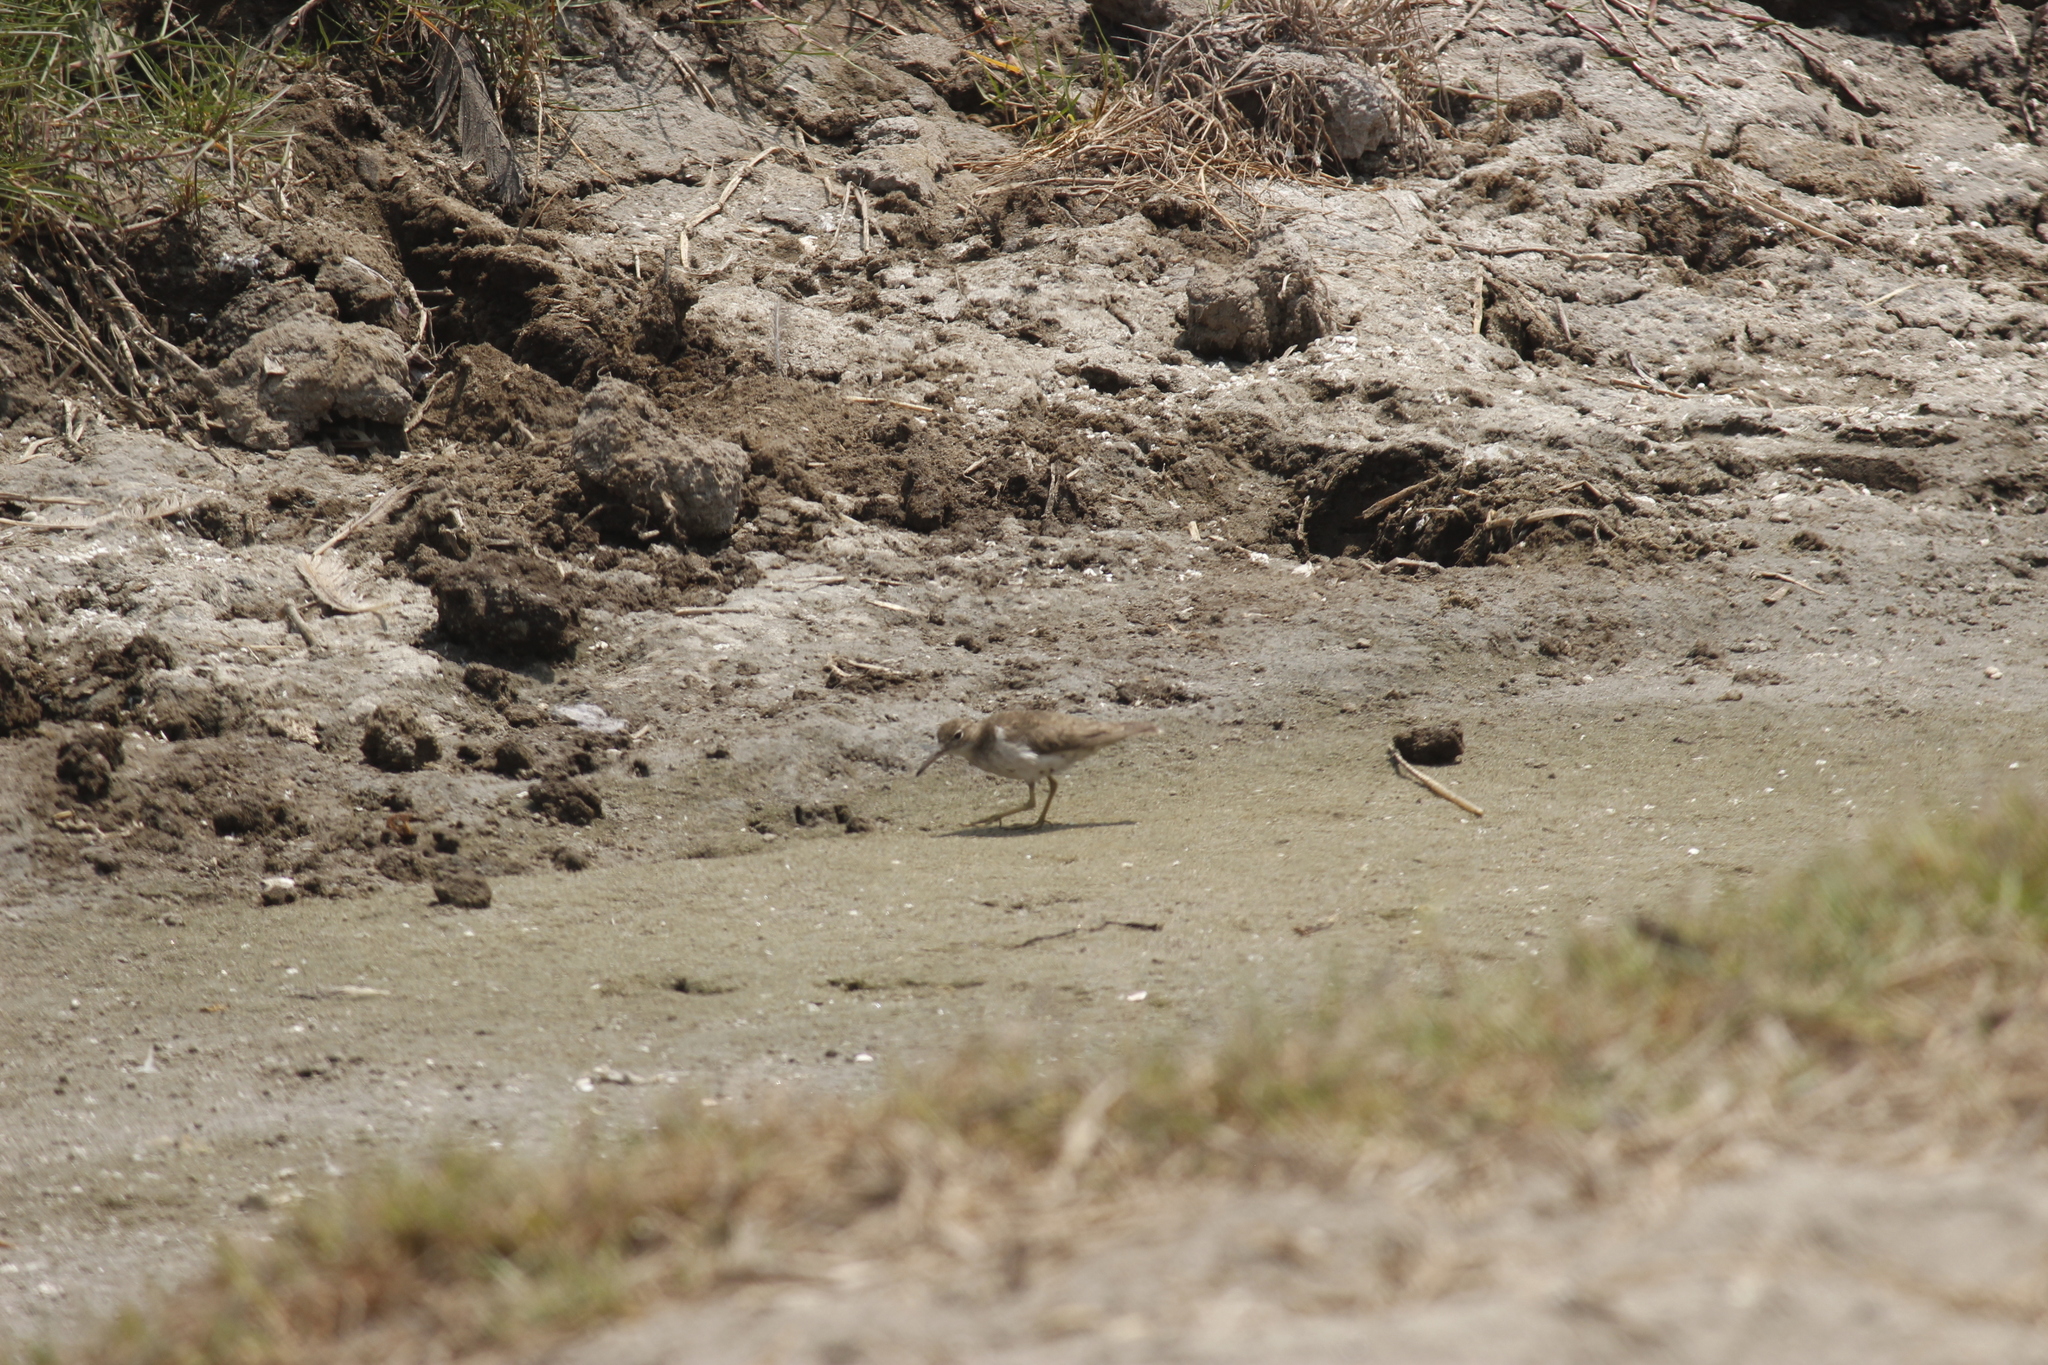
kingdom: Animalia
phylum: Chordata
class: Aves
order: Charadriiformes
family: Scolopacidae
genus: Actitis
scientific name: Actitis macularius
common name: Spotted sandpiper
